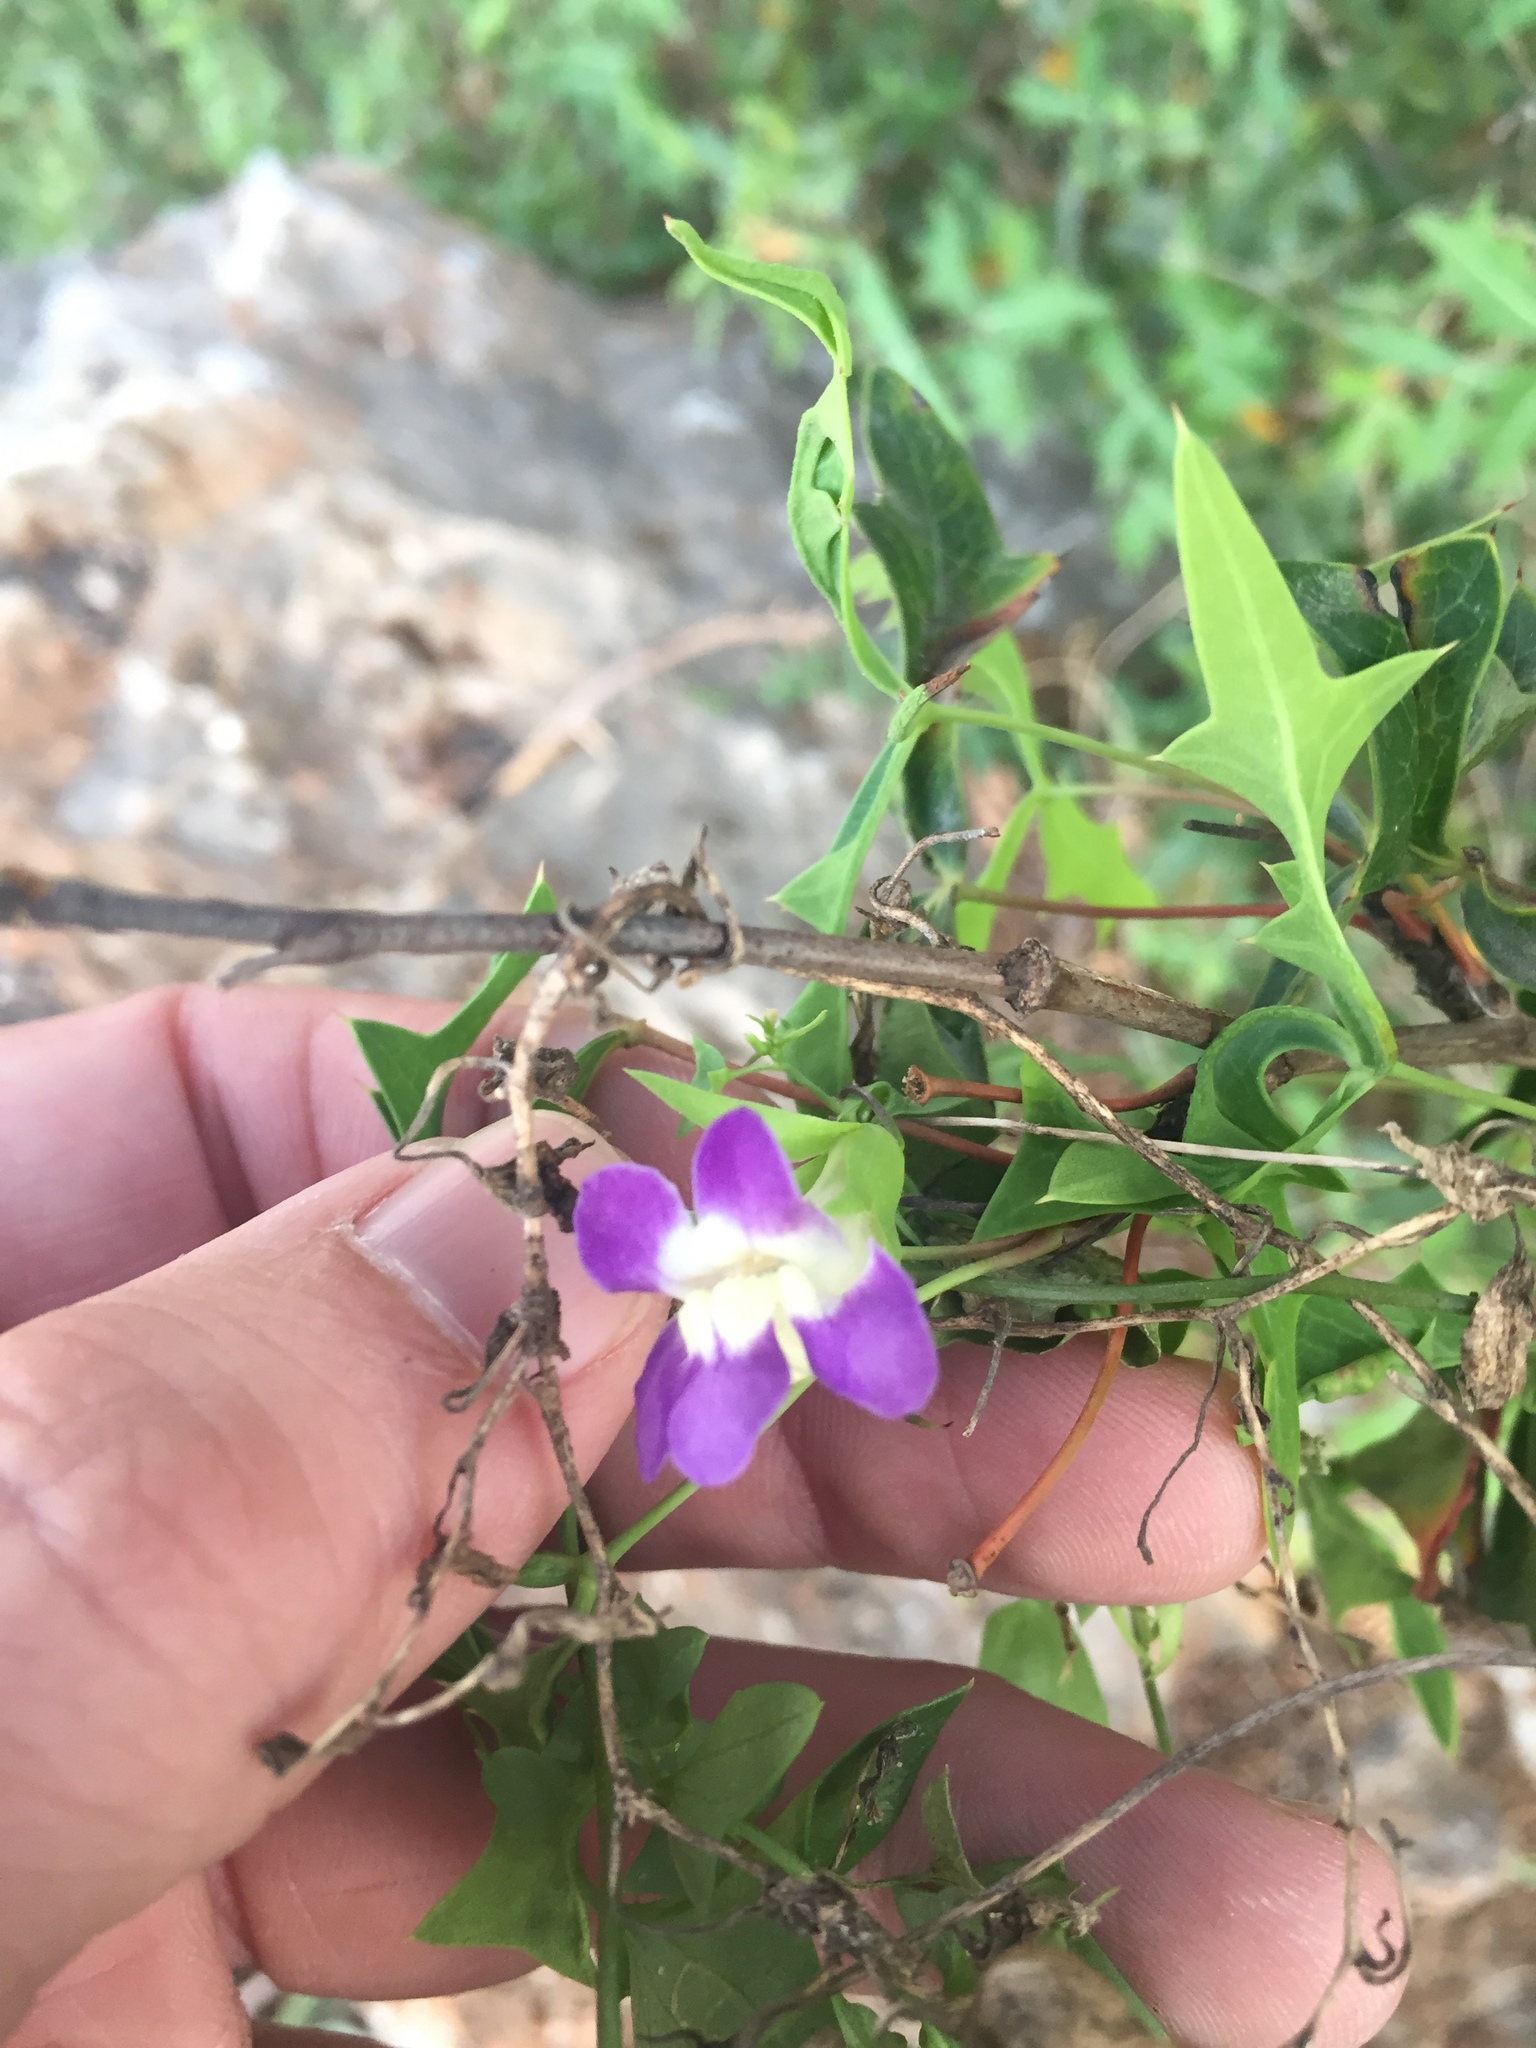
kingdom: Plantae
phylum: Tracheophyta
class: Magnoliopsida
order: Lamiales
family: Plantaginaceae
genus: Maurandella
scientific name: Maurandella antirrhiniflora
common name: Violet twining-snapdragon
